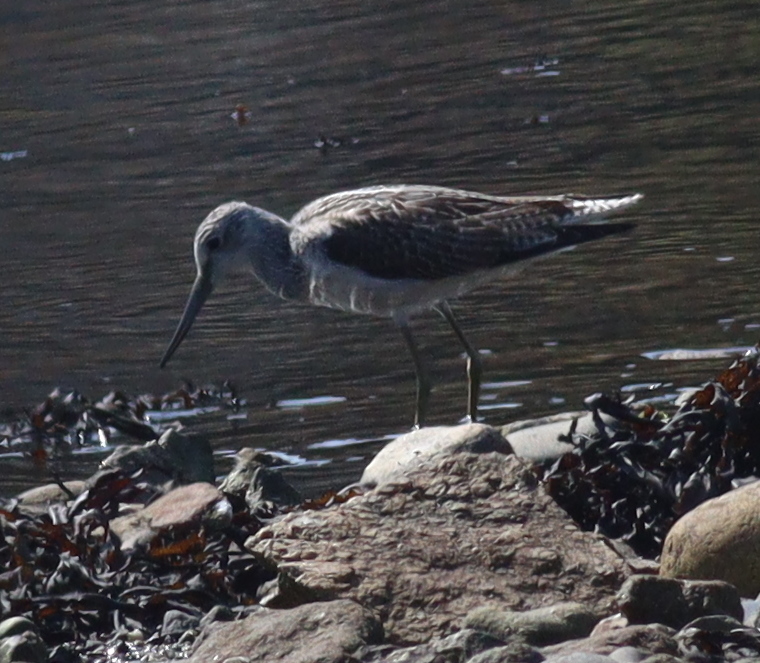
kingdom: Animalia
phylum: Chordata
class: Aves
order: Charadriiformes
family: Scolopacidae
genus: Tringa
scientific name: Tringa nebularia
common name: Common greenshank
